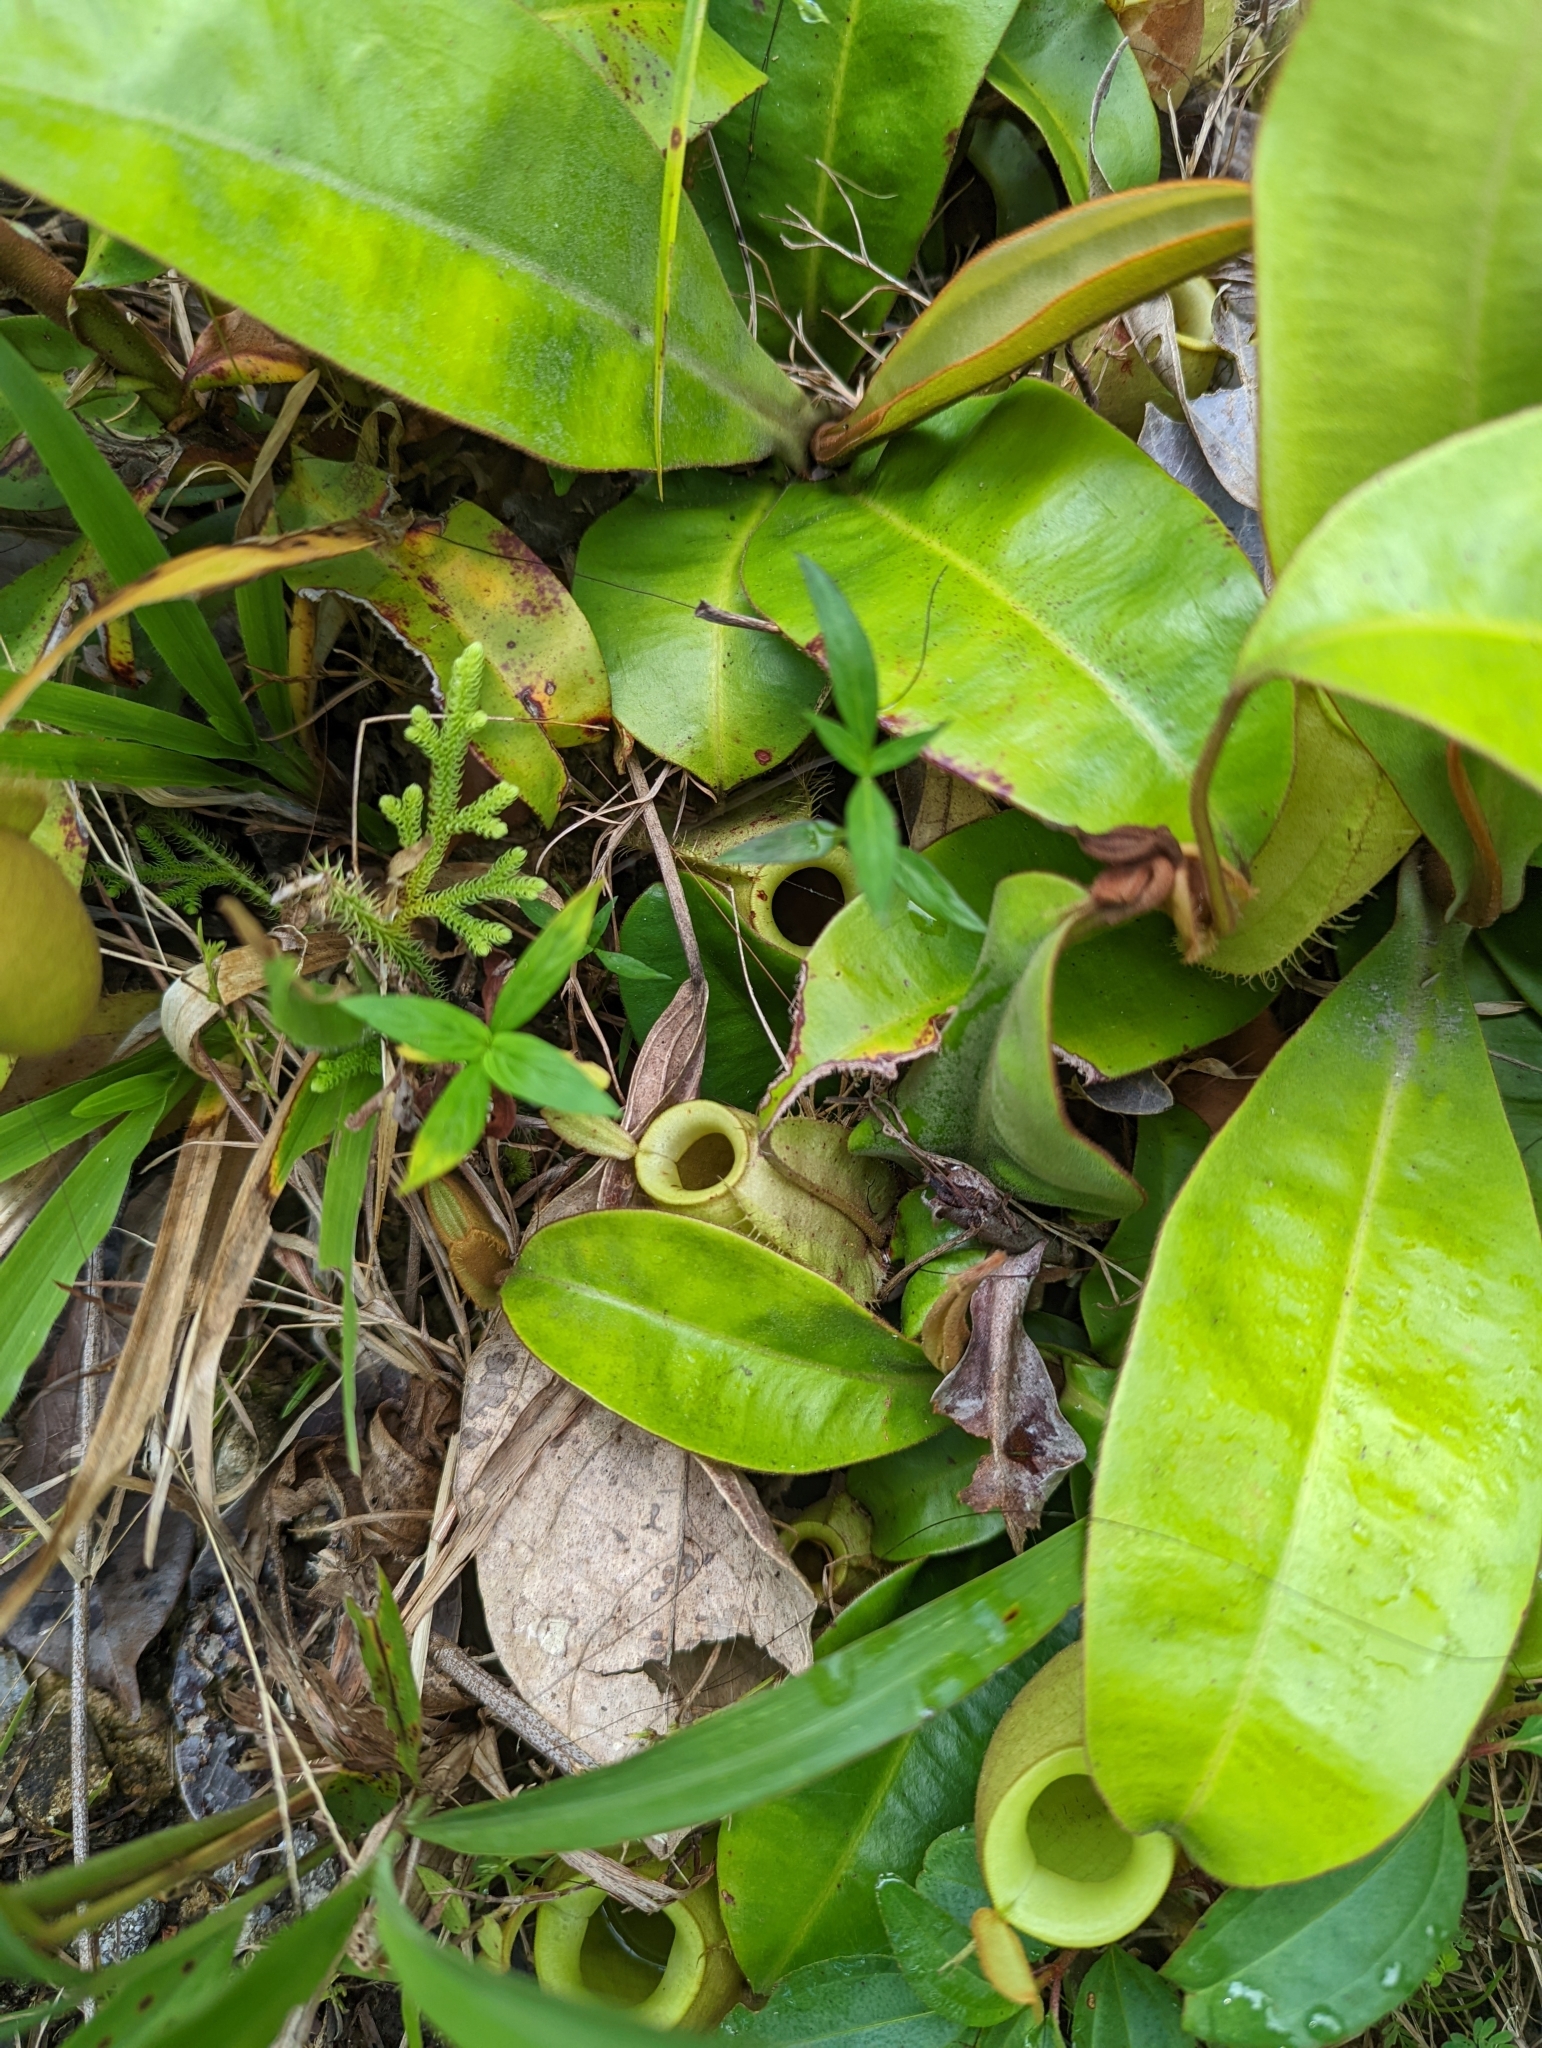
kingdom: Plantae
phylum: Tracheophyta
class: Magnoliopsida
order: Caryophyllales
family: Nepenthaceae
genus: Nepenthes
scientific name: Nepenthes ampullaria
